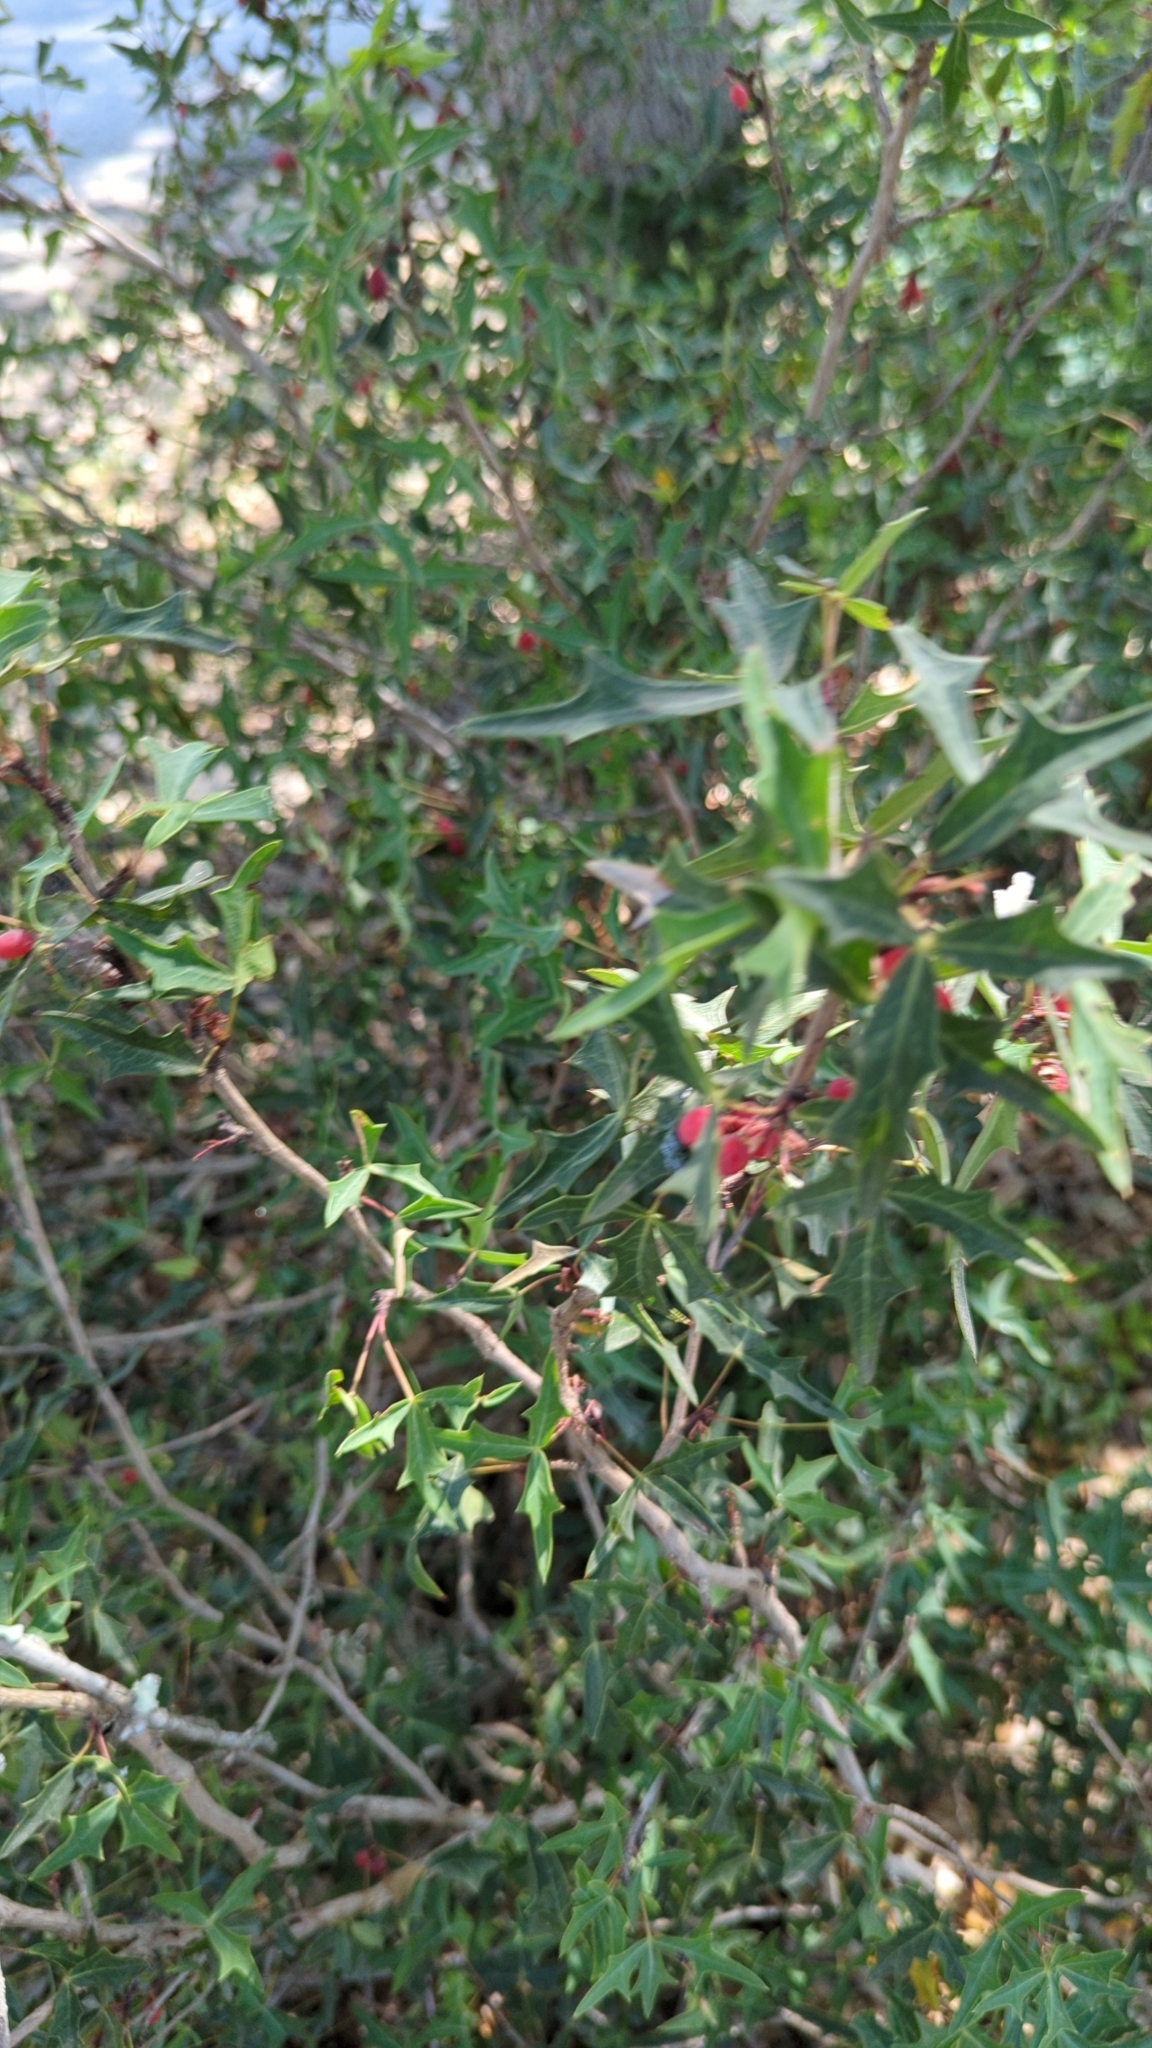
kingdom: Plantae
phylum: Tracheophyta
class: Magnoliopsida
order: Ranunculales
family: Berberidaceae
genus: Alloberberis
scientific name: Alloberberis trifoliolata
